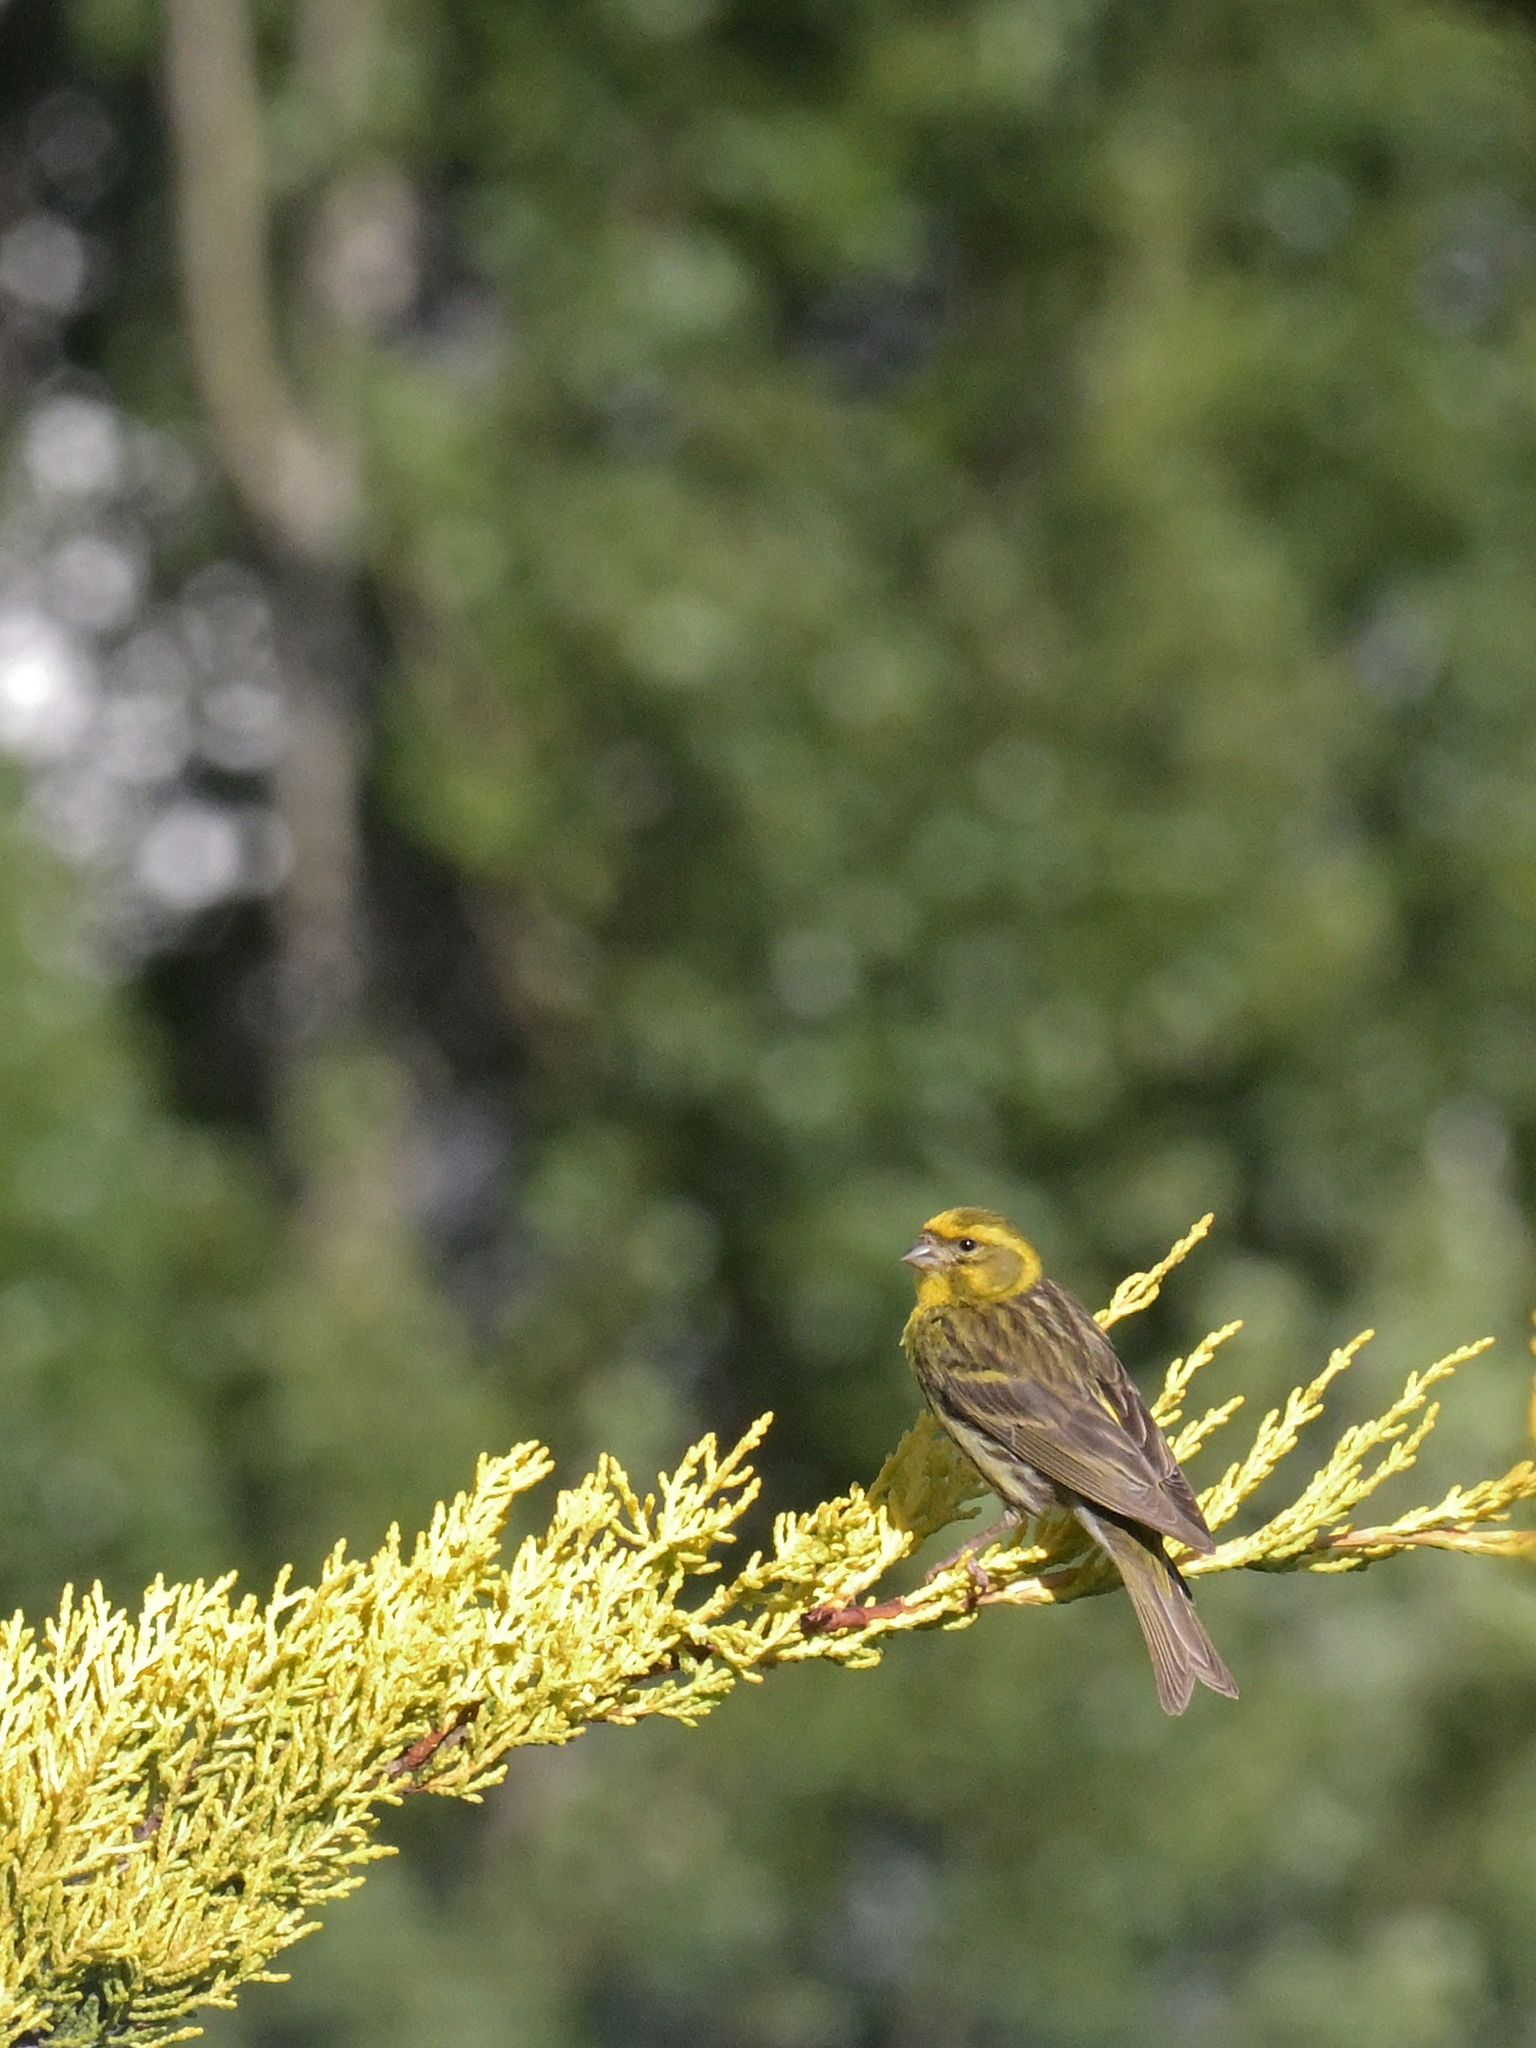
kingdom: Animalia
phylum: Chordata
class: Aves
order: Passeriformes
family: Fringillidae
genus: Serinus
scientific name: Serinus serinus
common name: European serin
